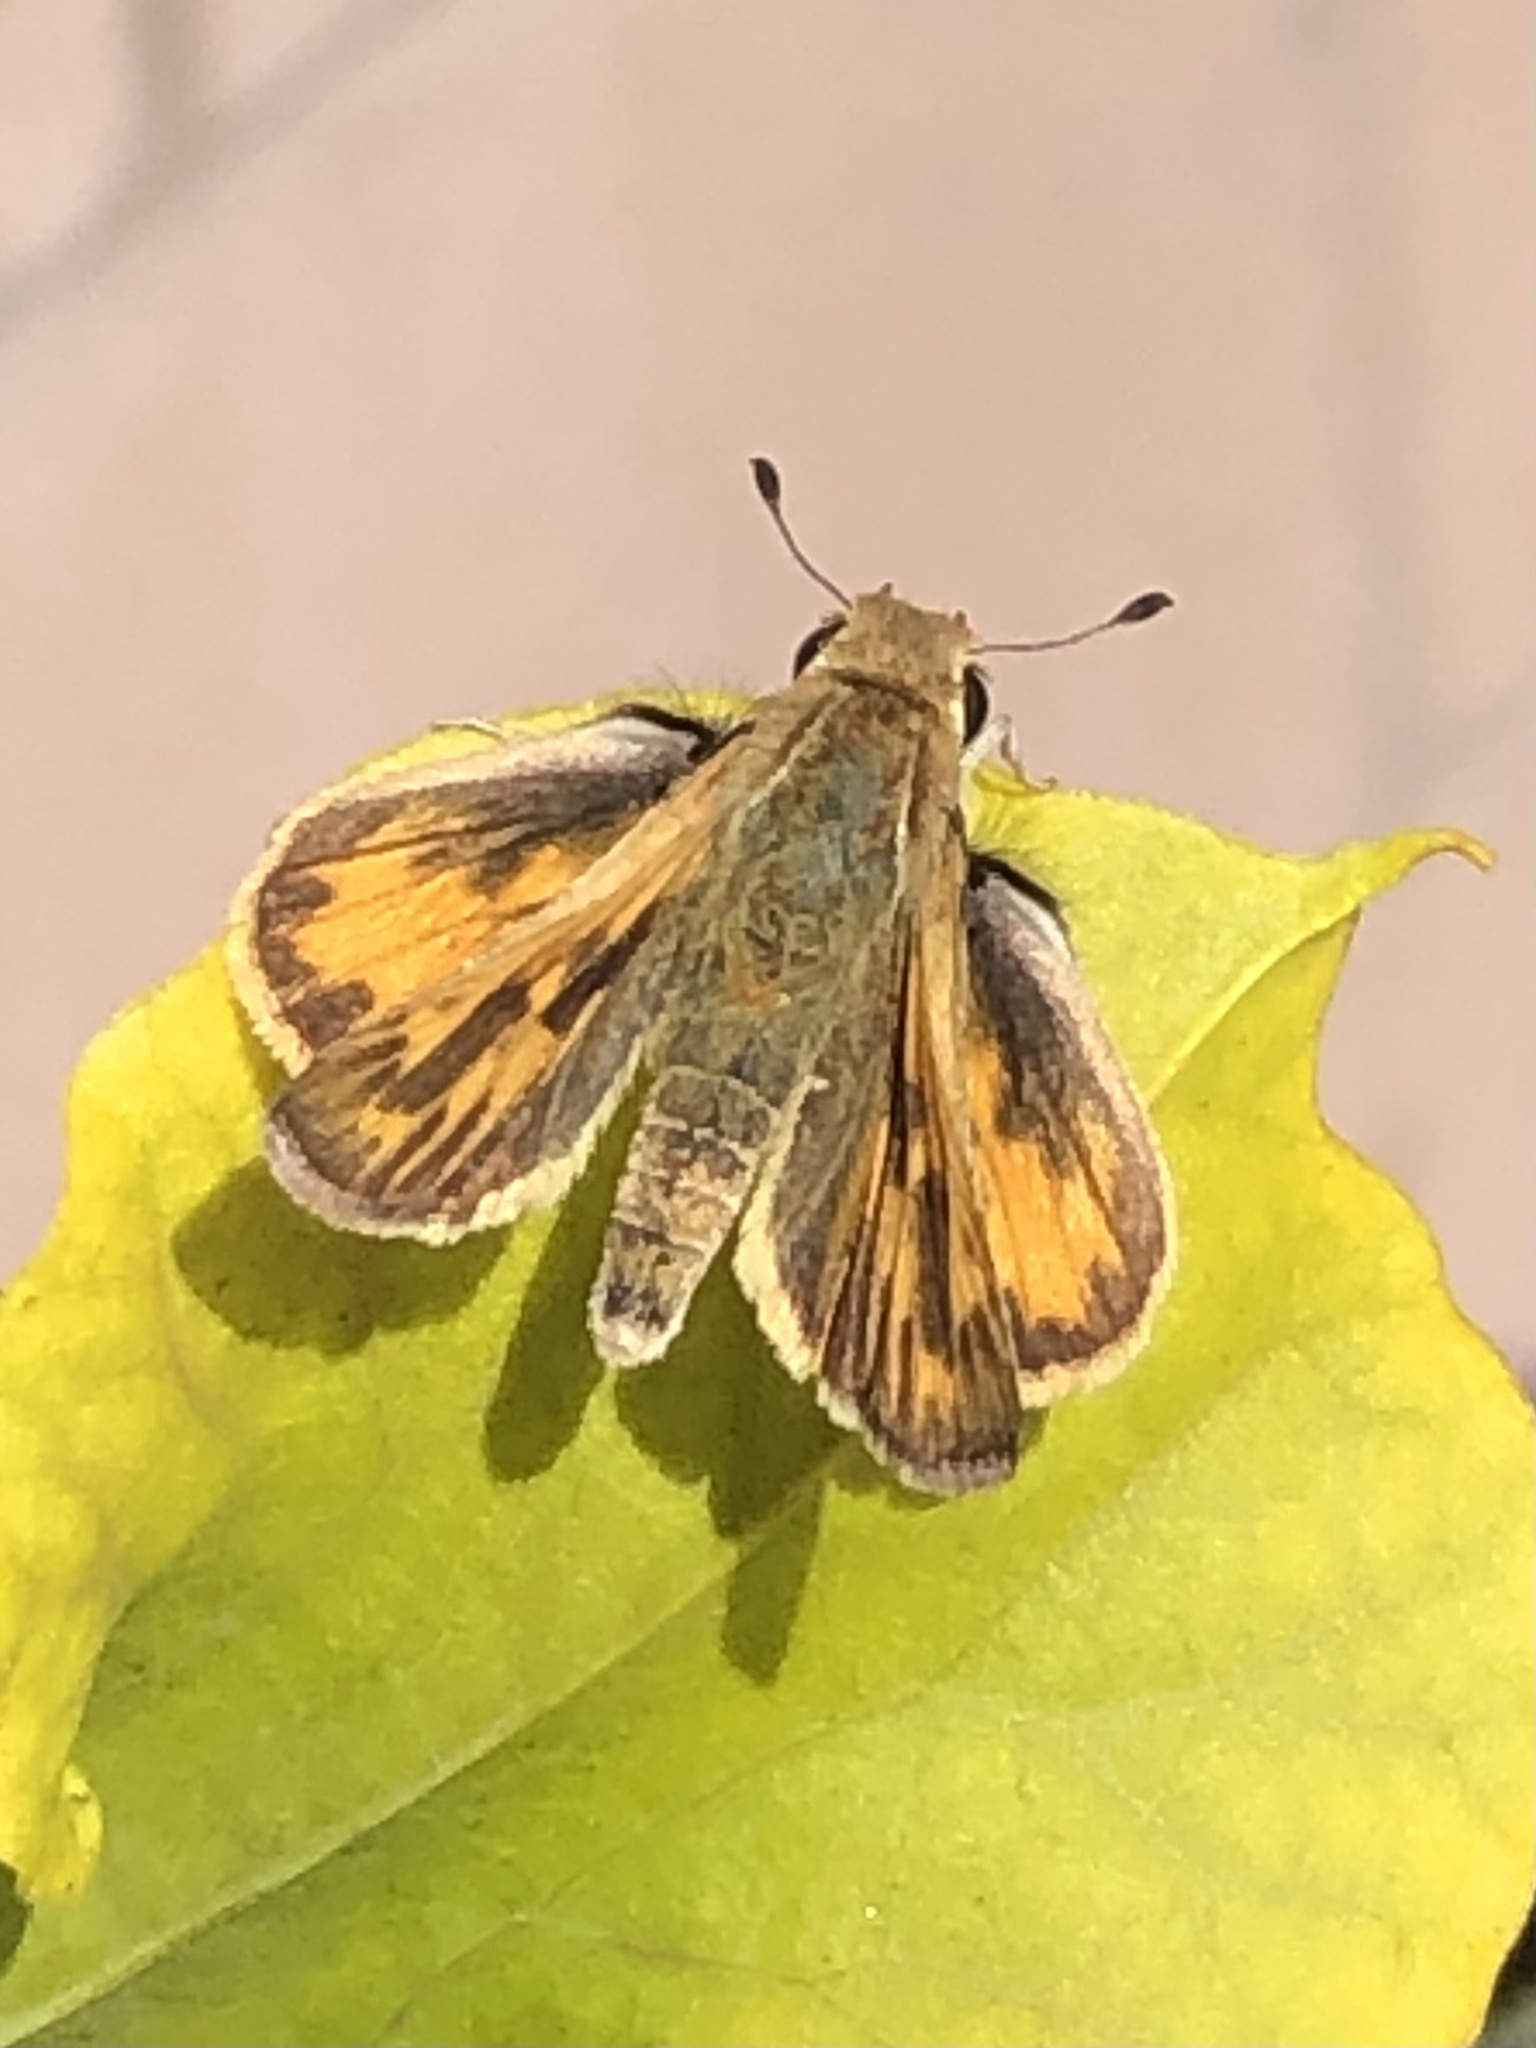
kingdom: Animalia
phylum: Arthropoda
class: Insecta
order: Lepidoptera
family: Hesperiidae
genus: Hylephila
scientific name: Hylephila phyleus
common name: Fiery skipper
